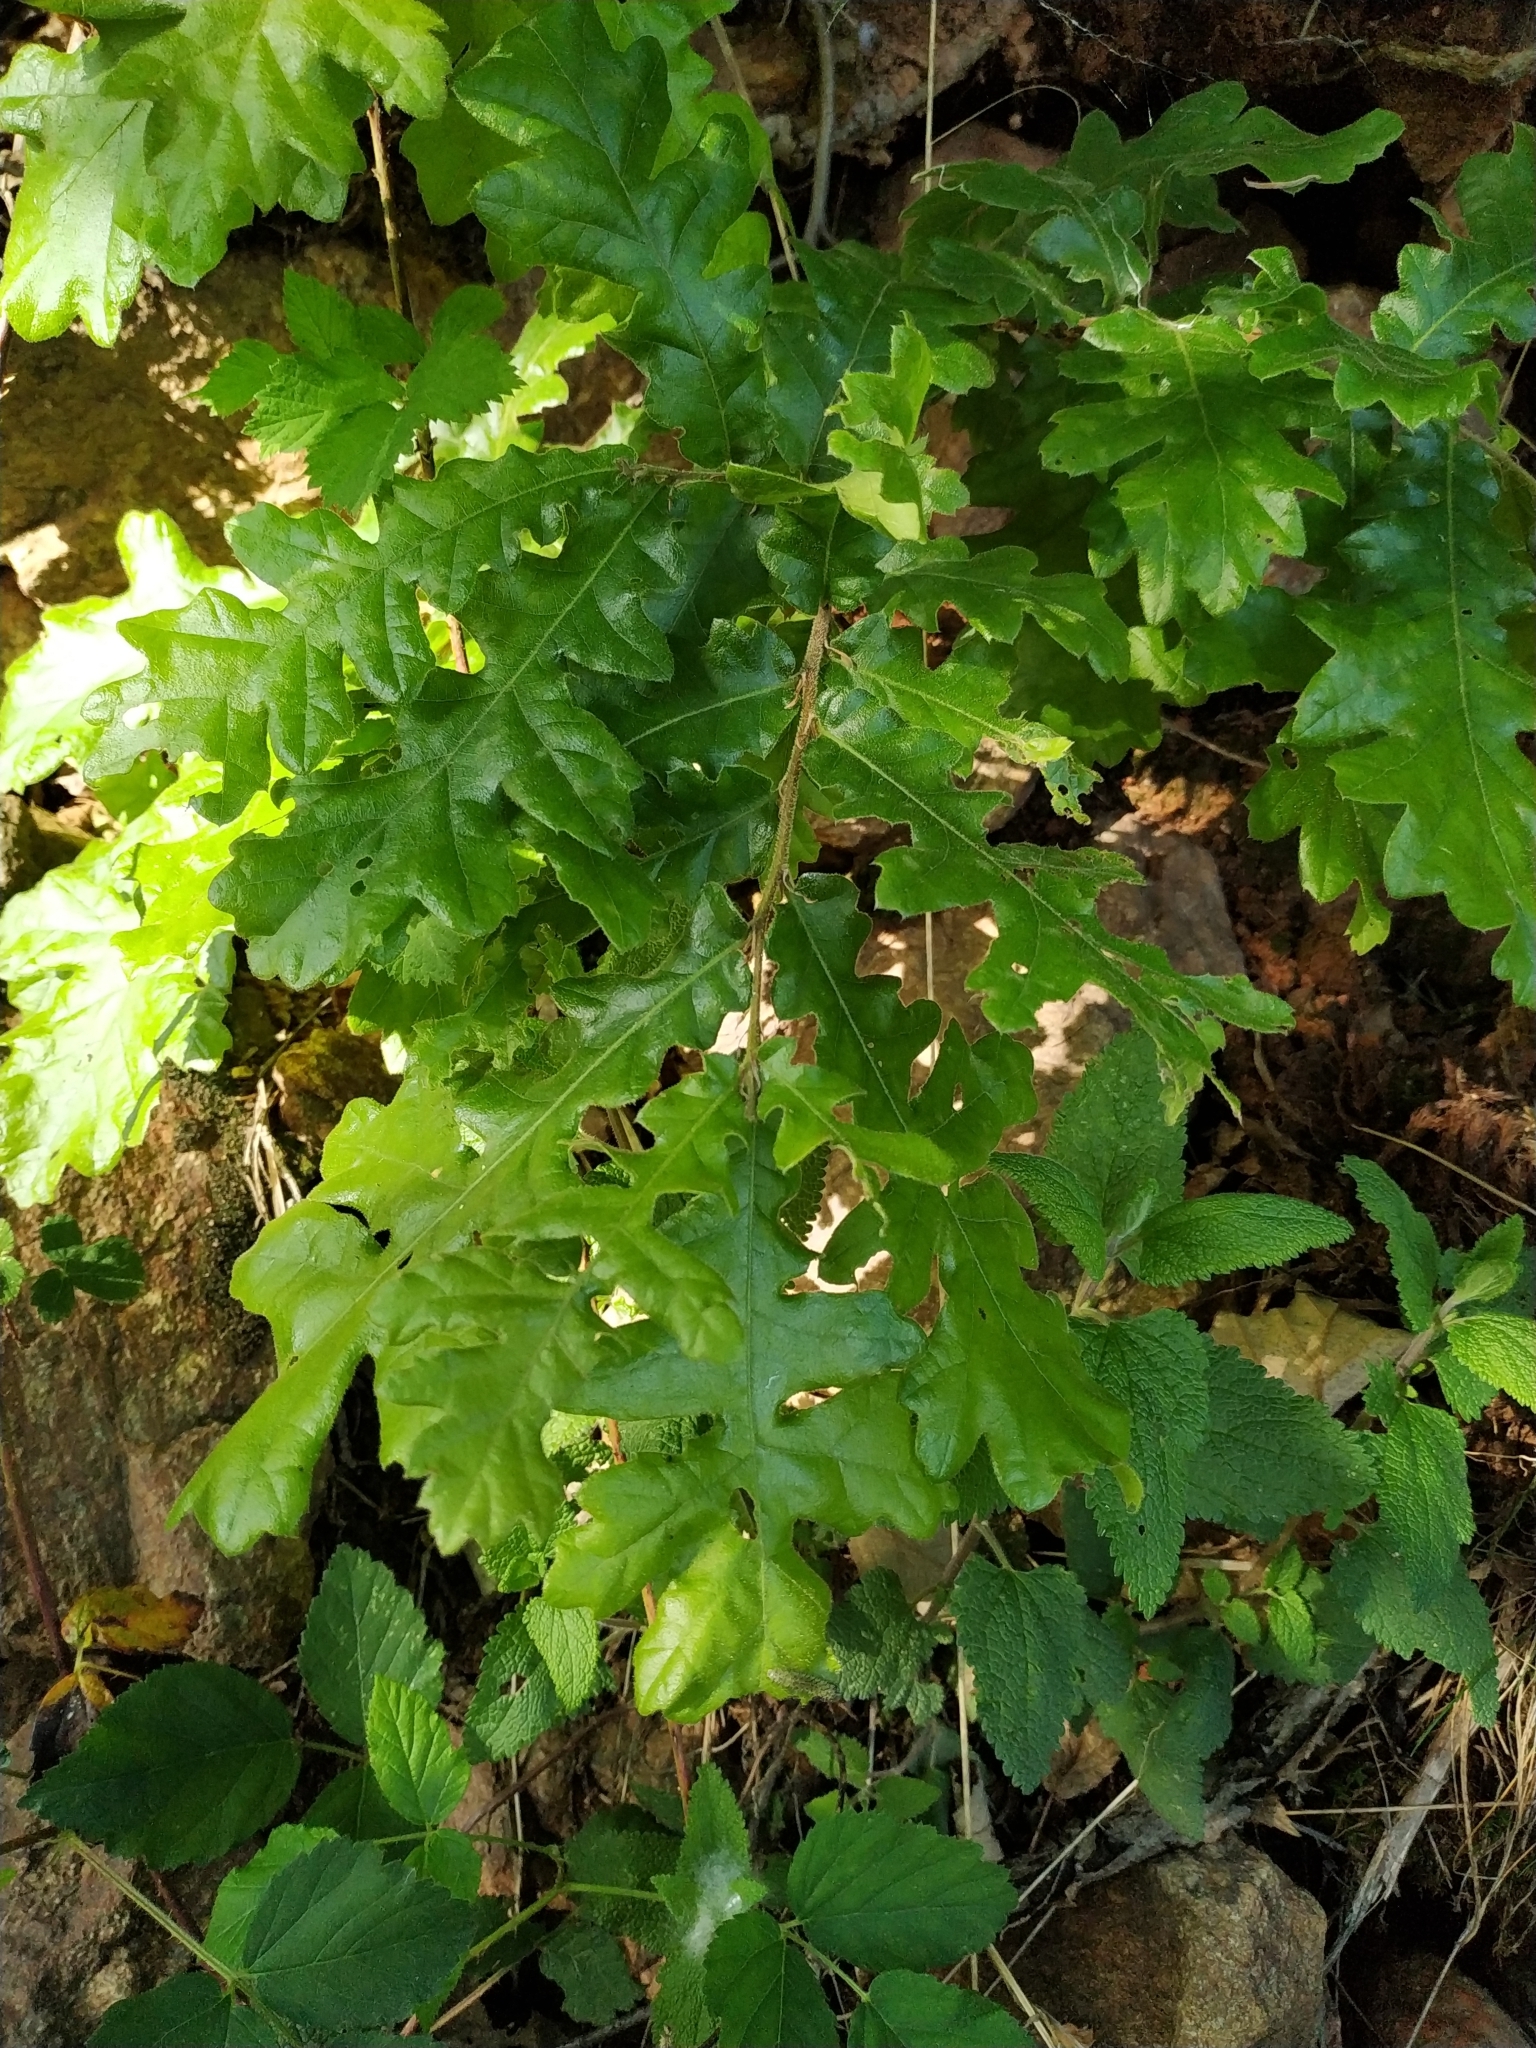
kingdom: Plantae
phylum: Tracheophyta
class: Magnoliopsida
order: Fagales
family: Fagaceae
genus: Quercus
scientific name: Quercus cerris
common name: Turkey oak
